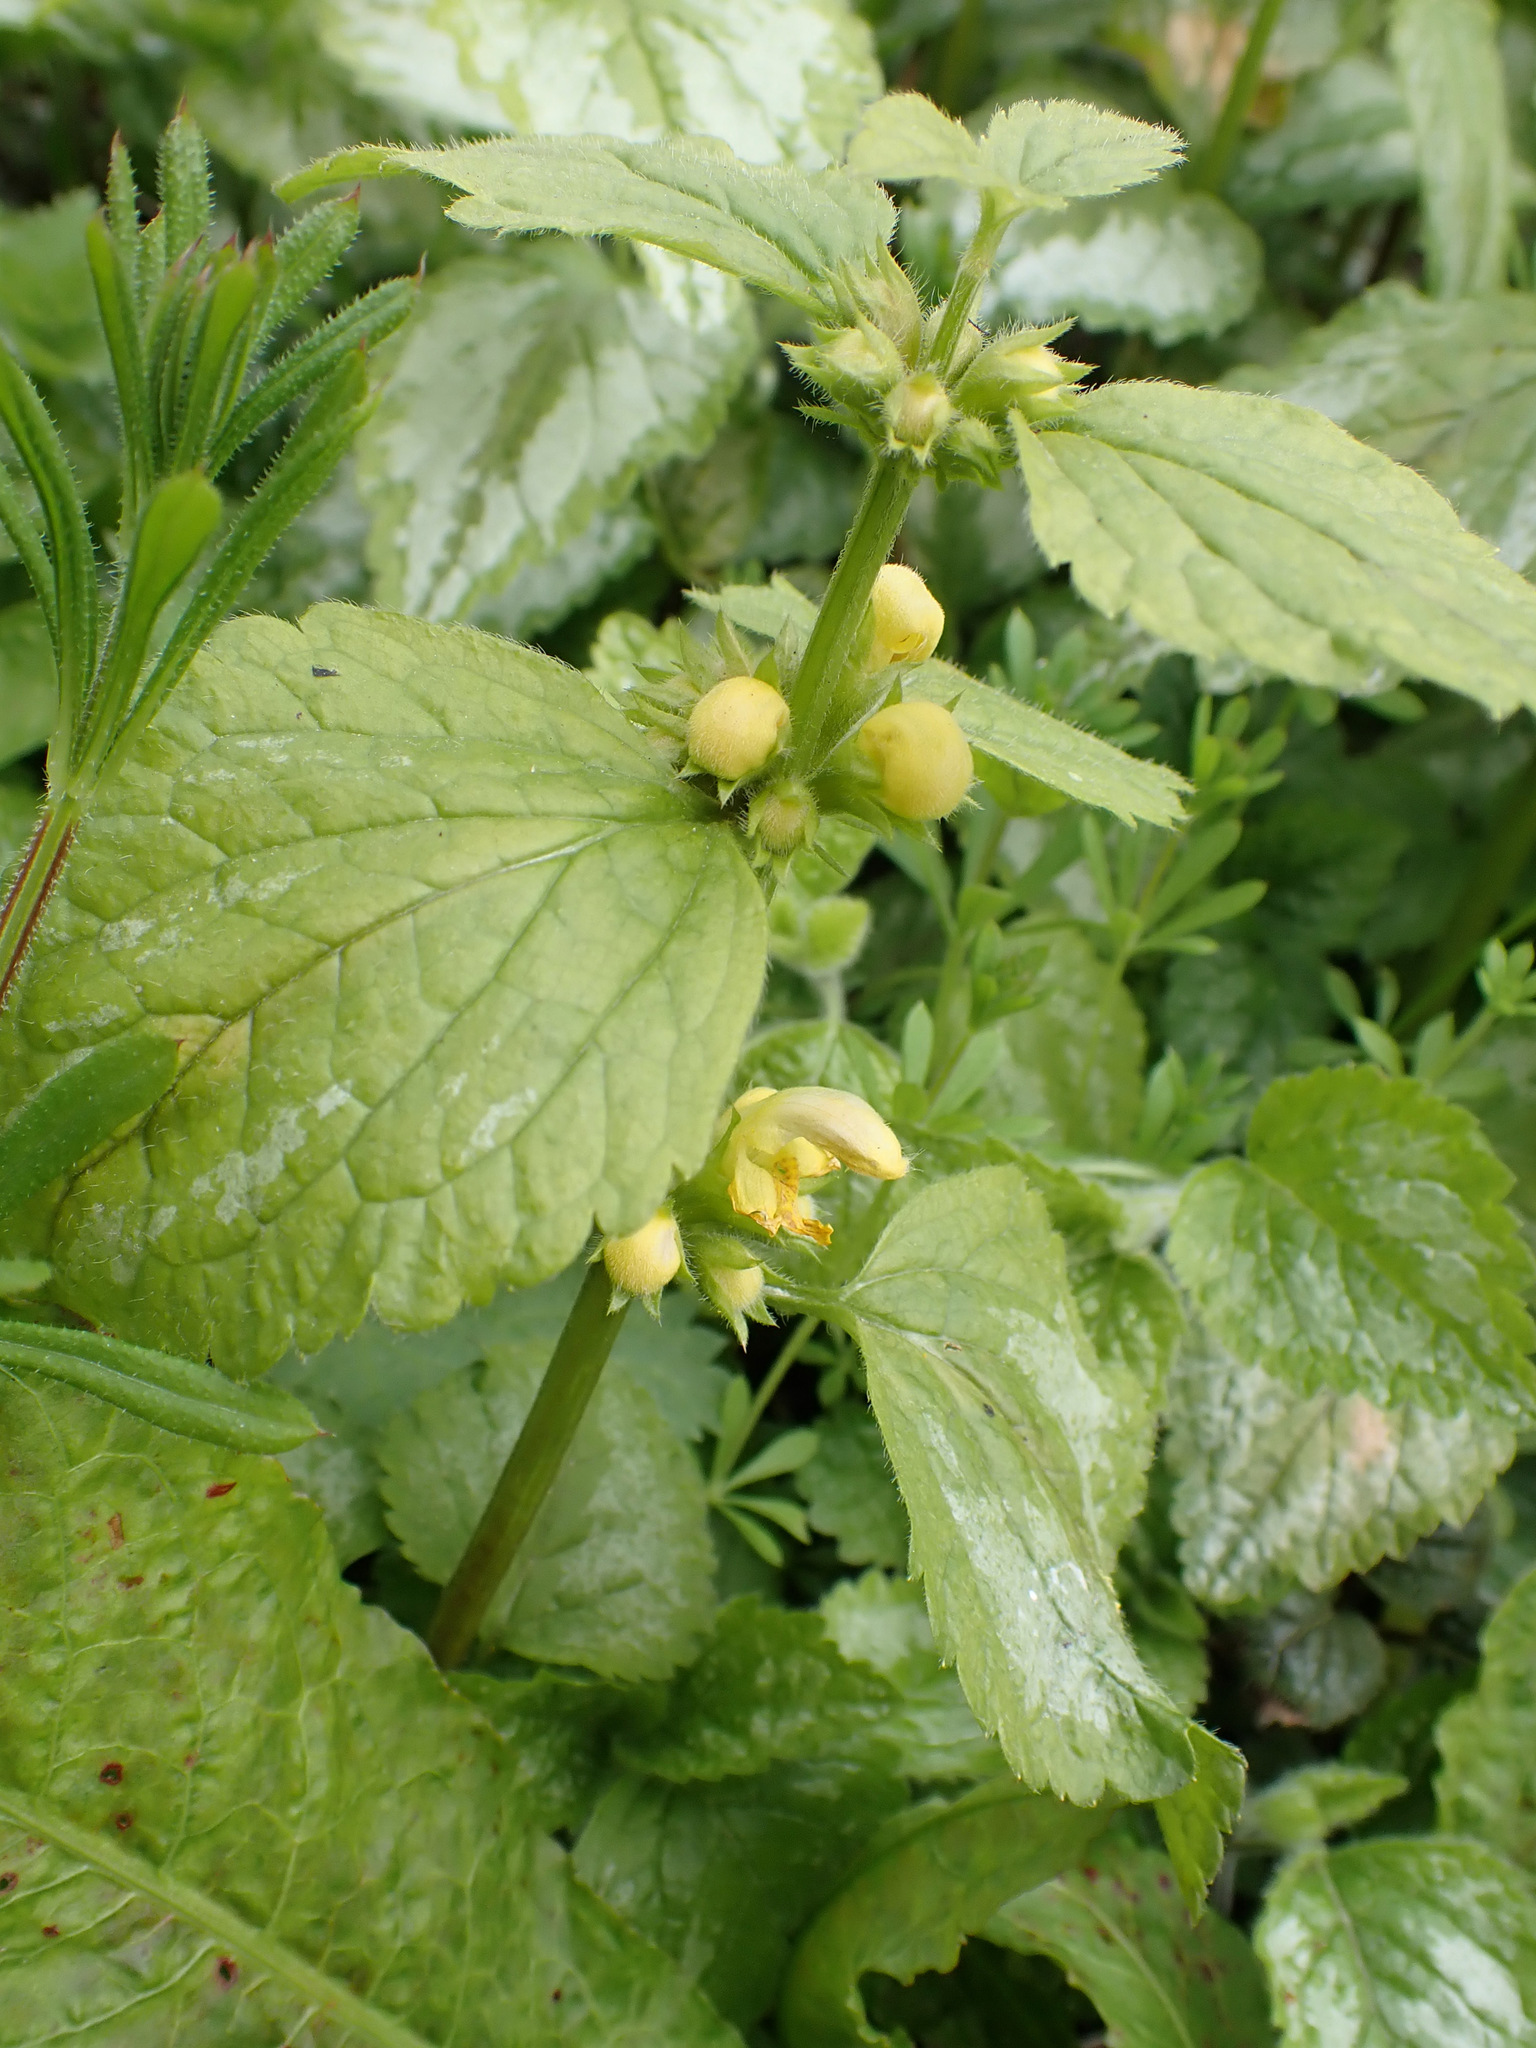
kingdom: Plantae
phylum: Tracheophyta
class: Magnoliopsida
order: Lamiales
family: Lamiaceae
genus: Lamium
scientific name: Lamium galeobdolon
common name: Yellow archangel
